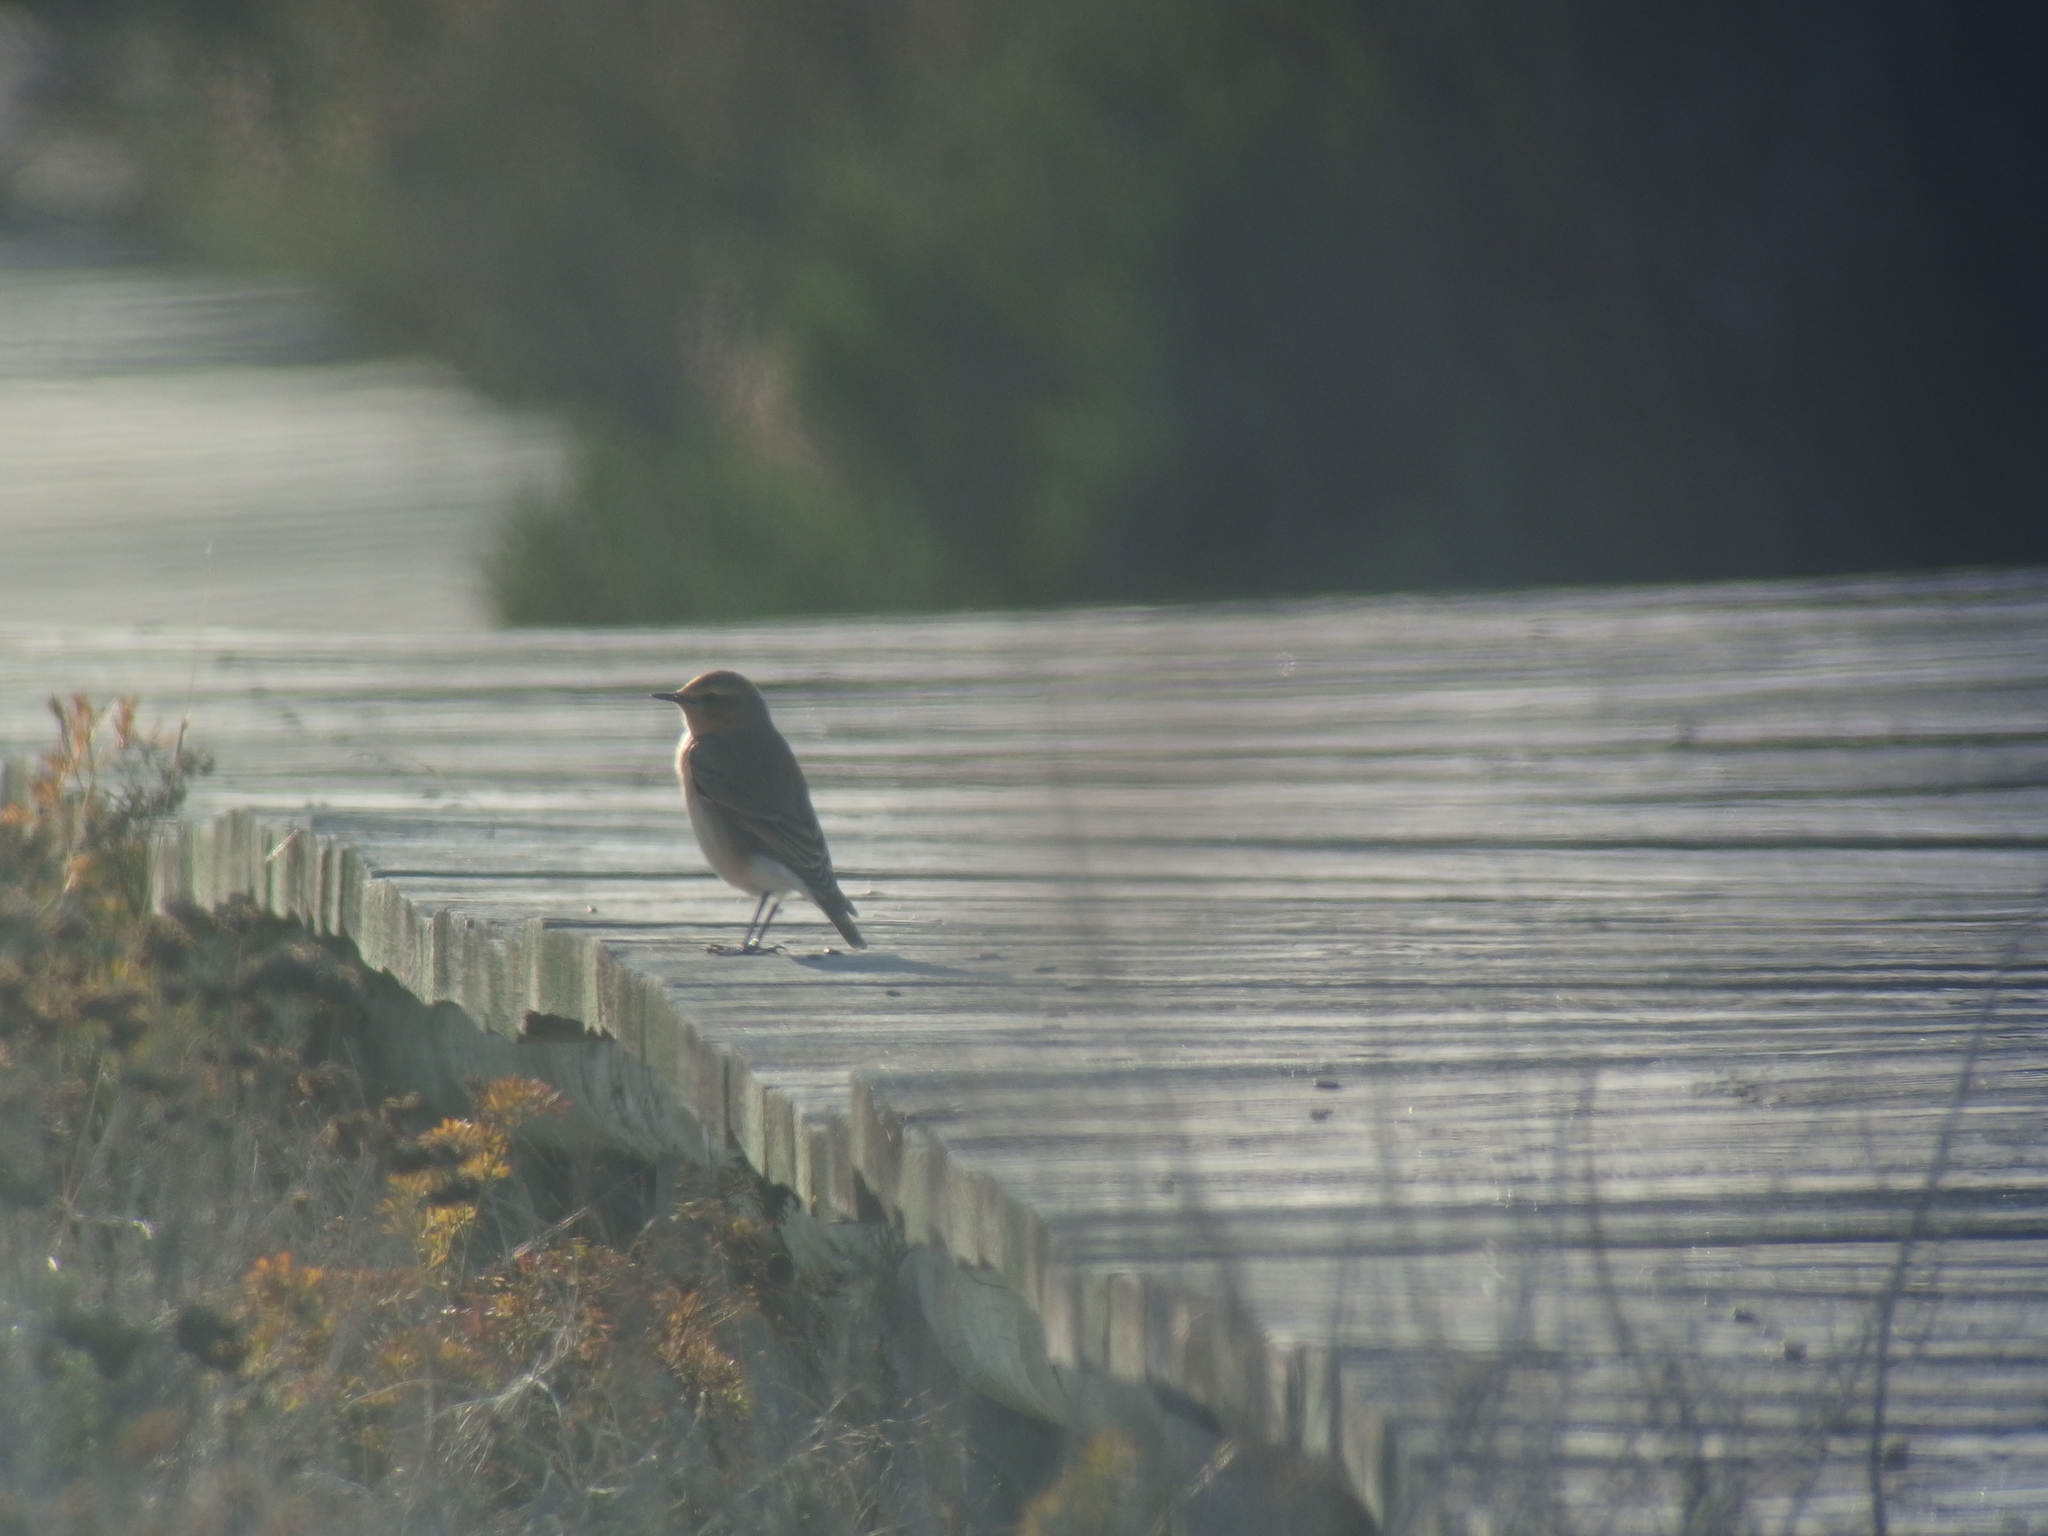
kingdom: Animalia
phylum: Chordata
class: Aves
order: Passeriformes
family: Muscicapidae
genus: Oenanthe
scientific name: Oenanthe oenanthe
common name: Northern wheatear
